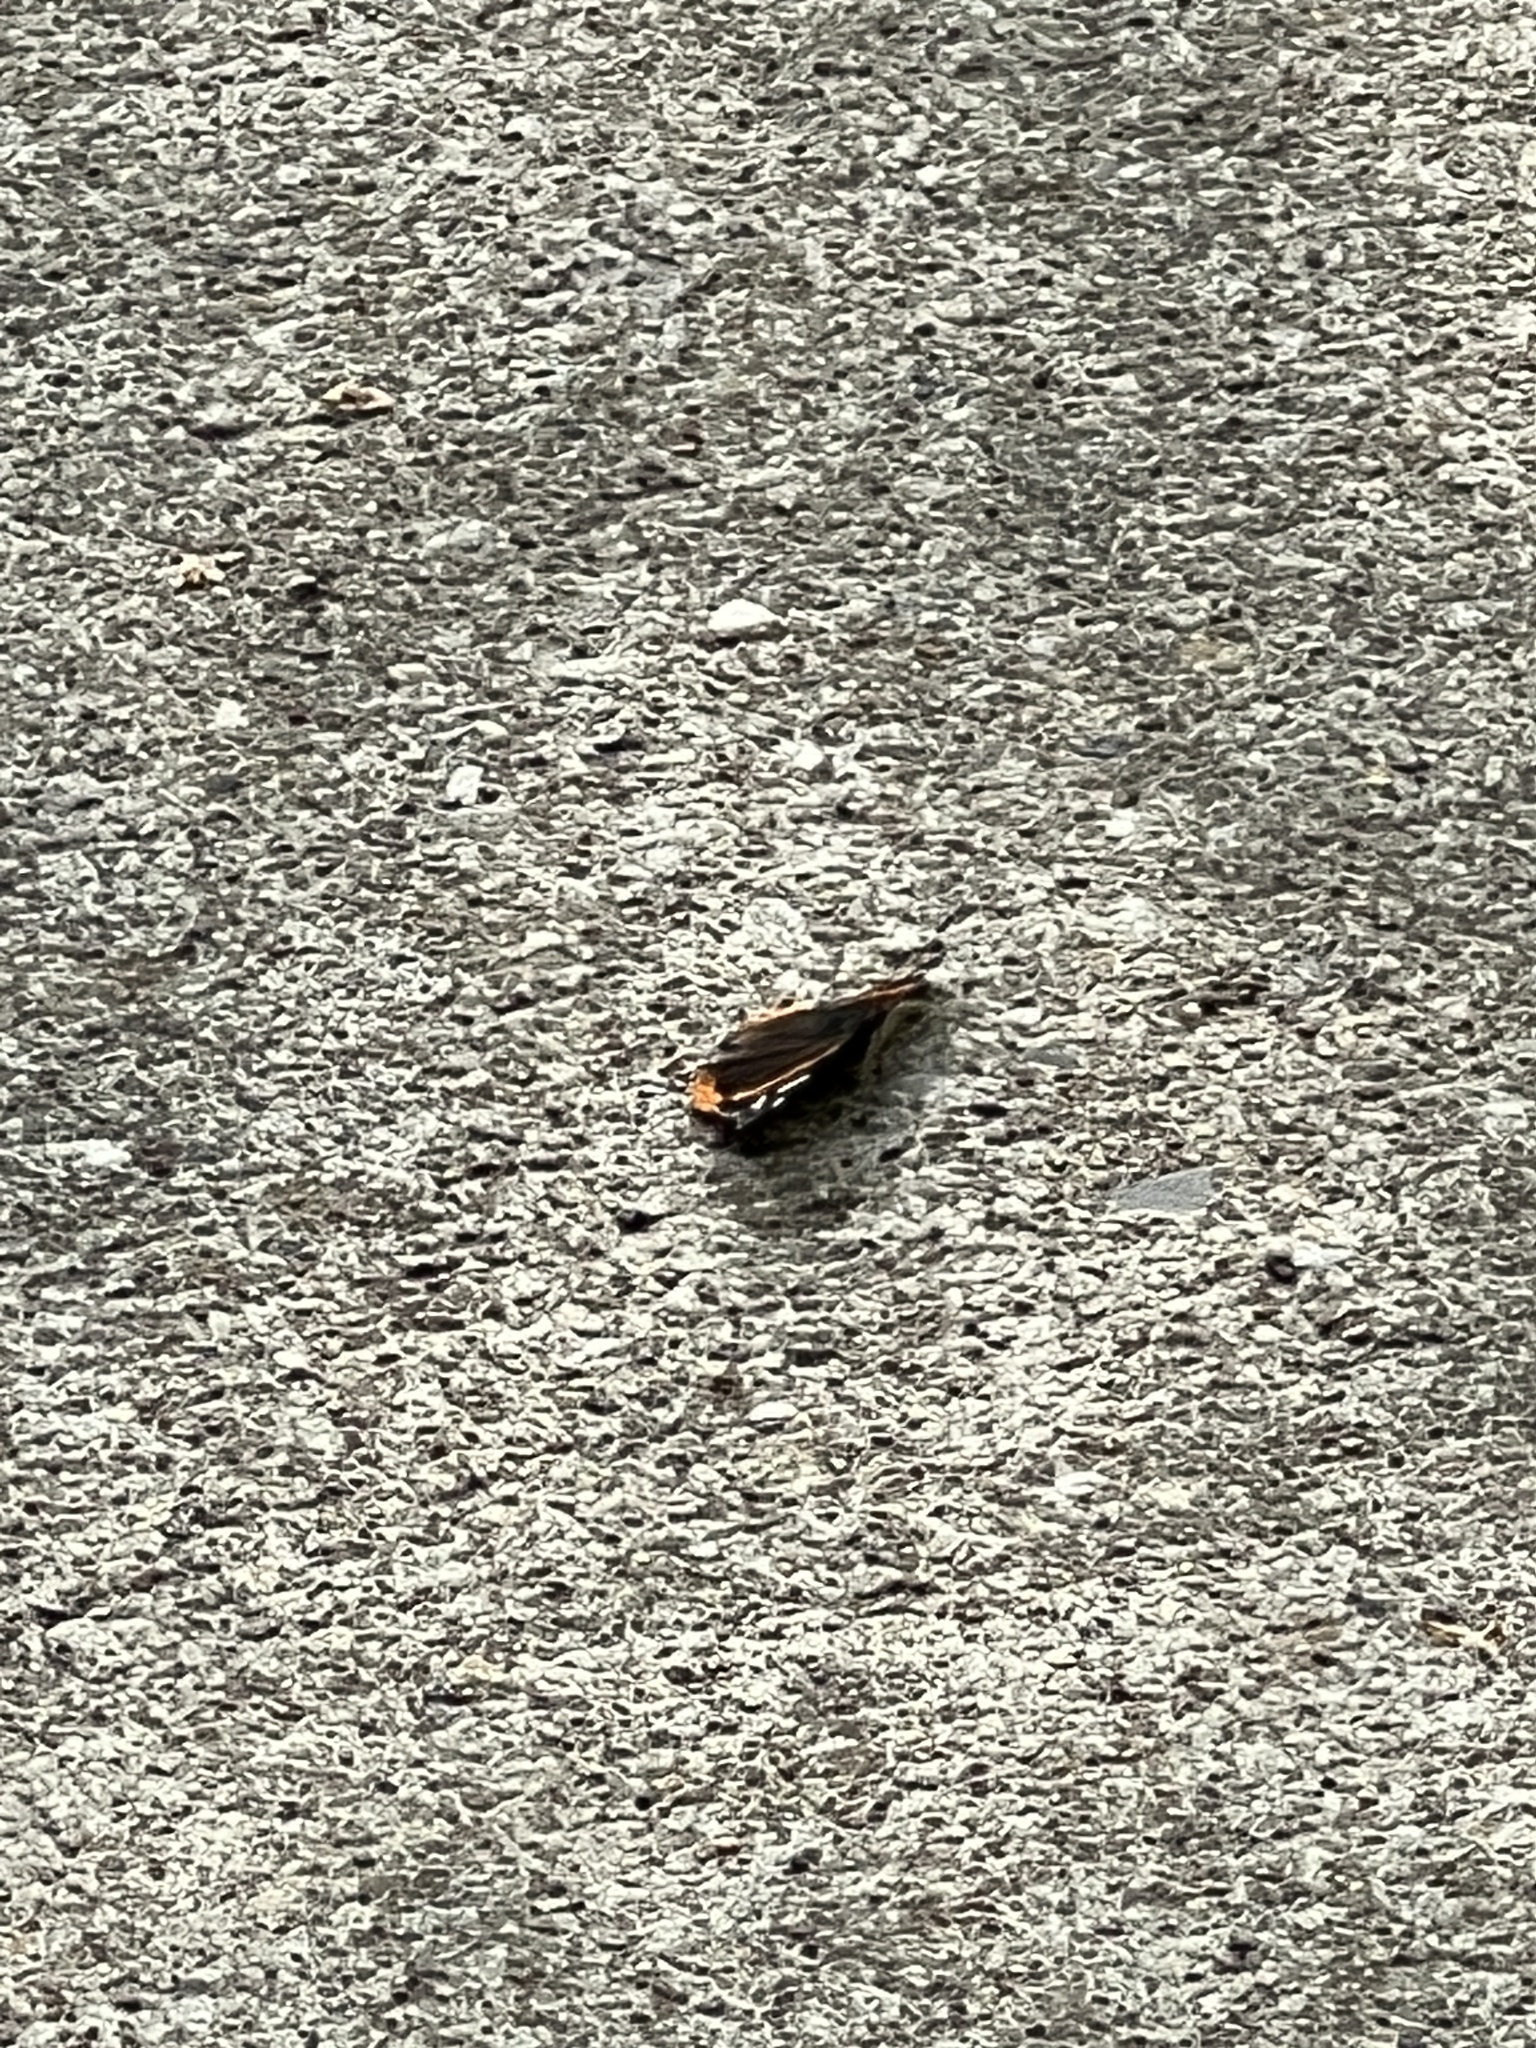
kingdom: Animalia
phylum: Arthropoda
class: Insecta
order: Lepidoptera
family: Nymphalidae
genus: Vanessa
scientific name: Vanessa atalanta
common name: Red admiral
